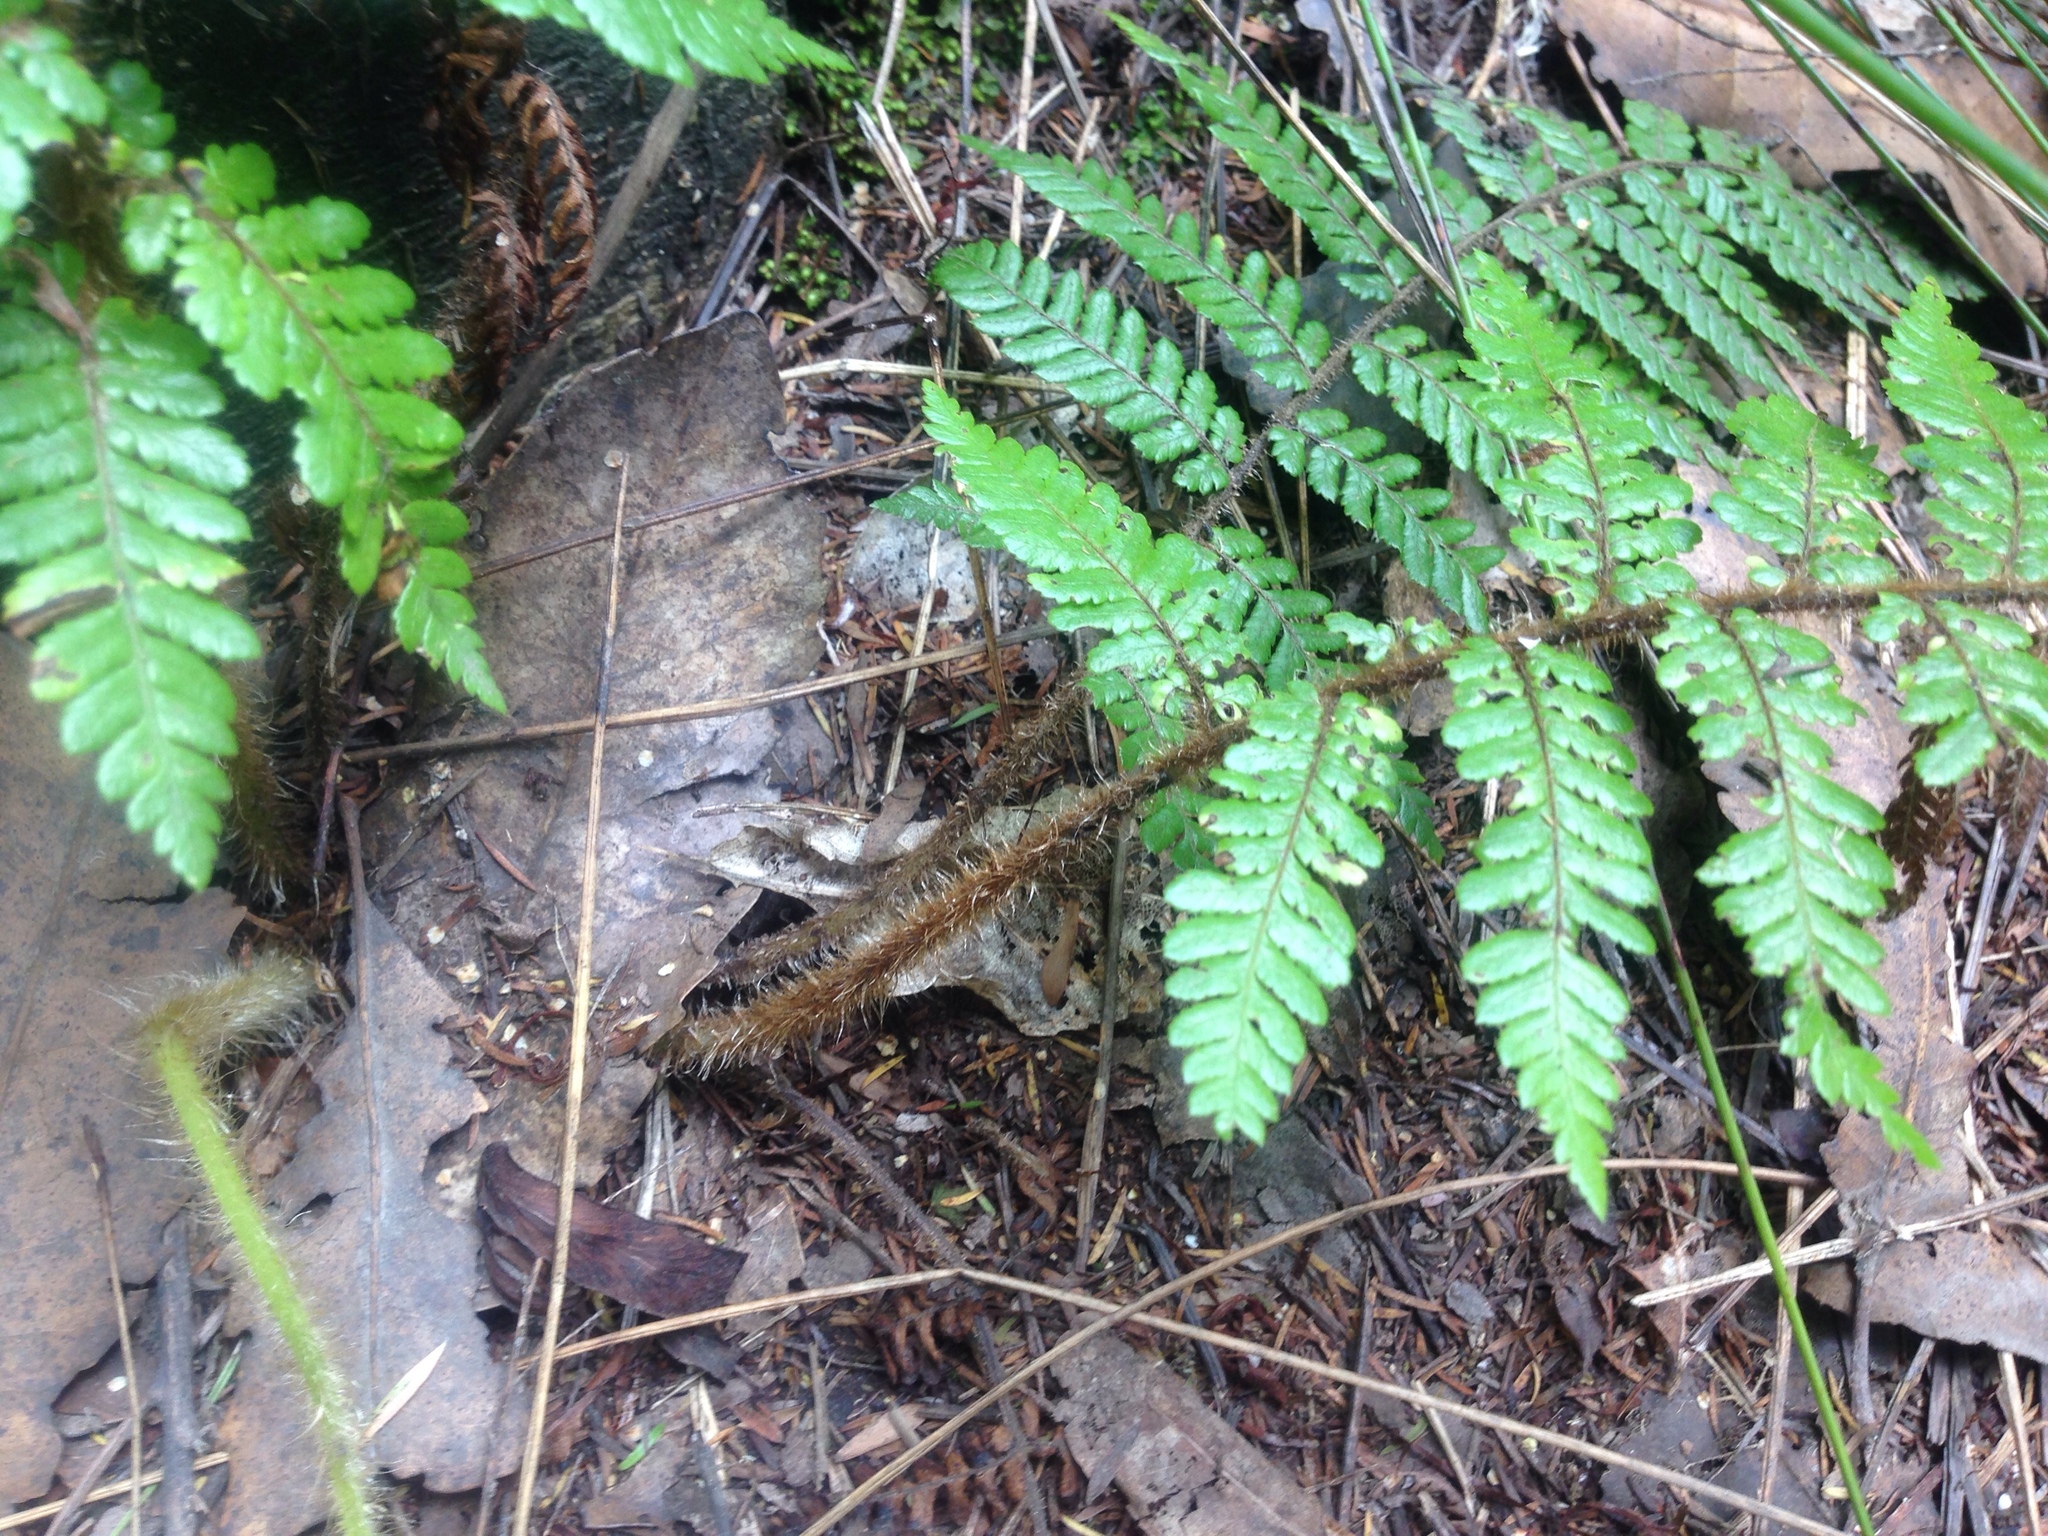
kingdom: Plantae
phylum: Tracheophyta
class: Polypodiopsida
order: Cyatheales
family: Dicksoniaceae
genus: Dicksonia
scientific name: Dicksonia squarrosa
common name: Hard treefern
